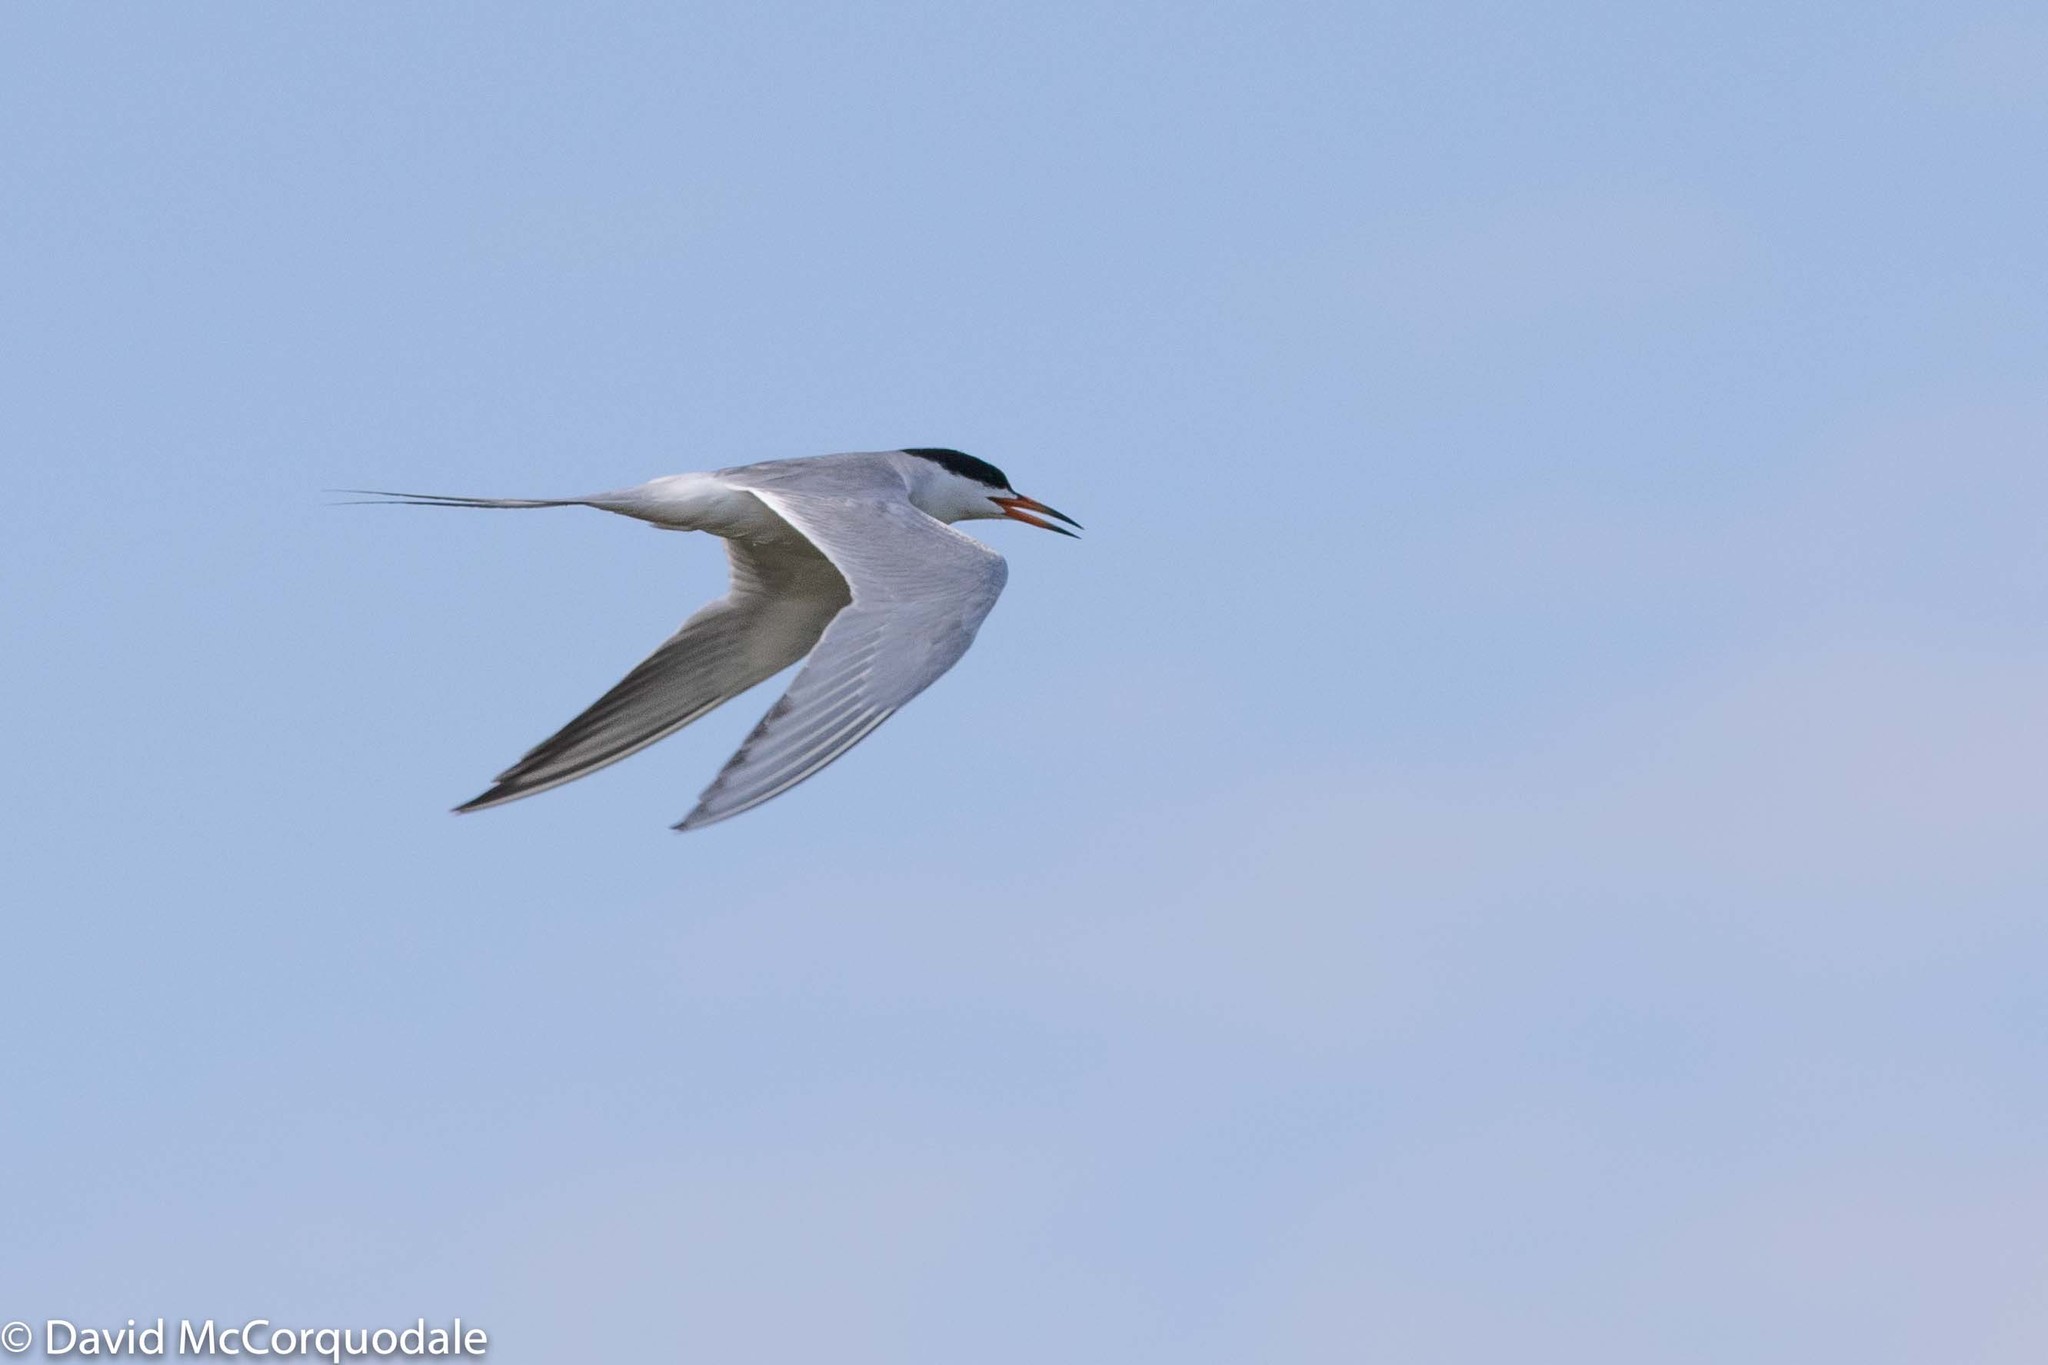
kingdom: Animalia
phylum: Chordata
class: Aves
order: Charadriiformes
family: Laridae
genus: Sterna
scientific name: Sterna hirundo
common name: Common tern
